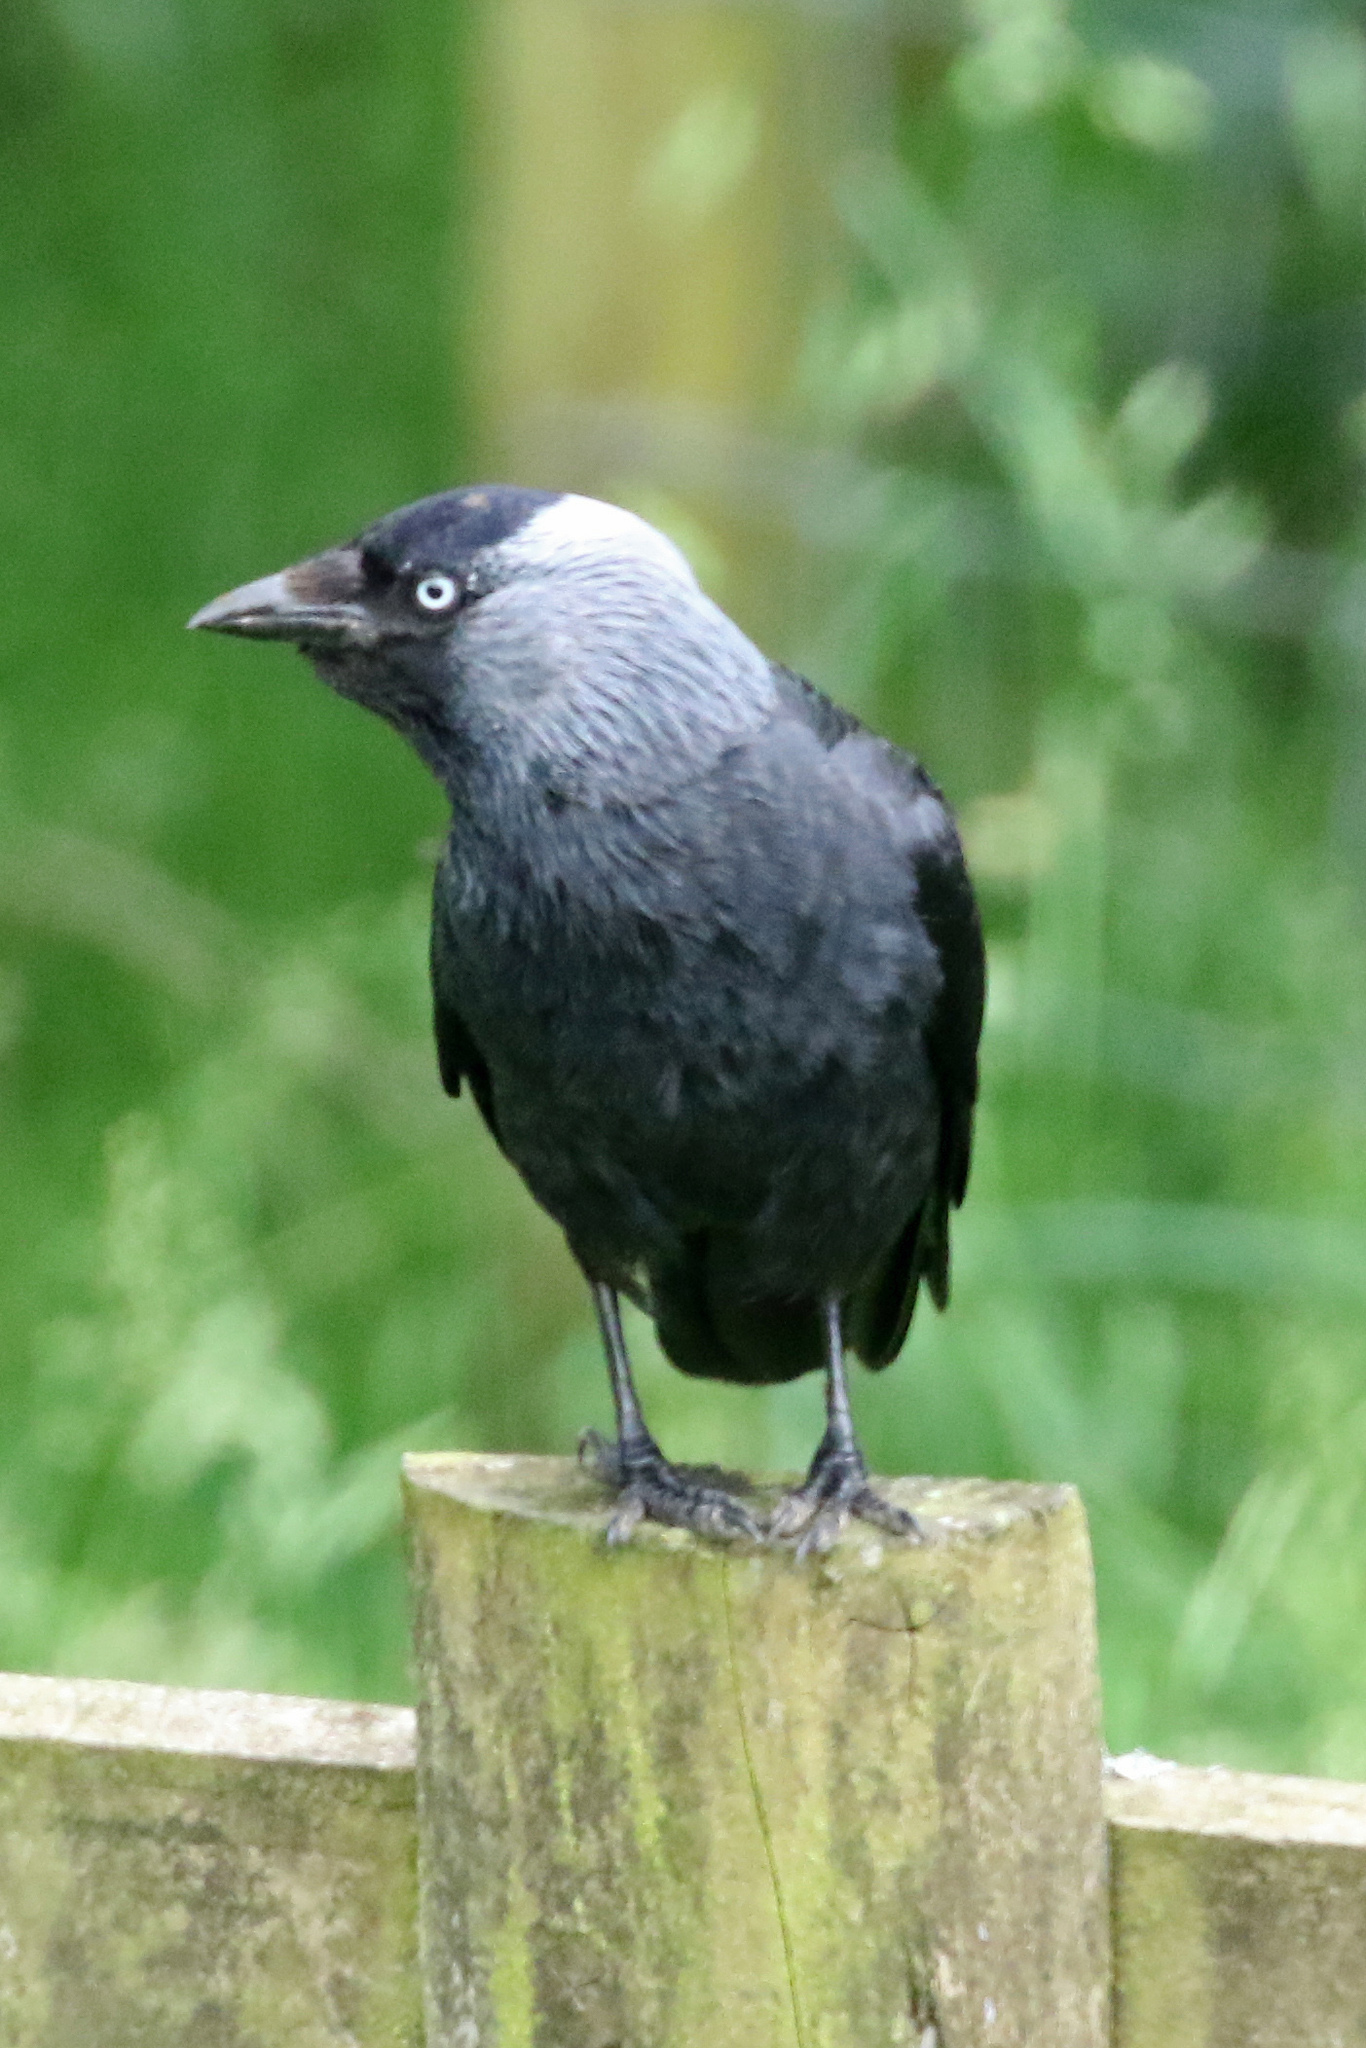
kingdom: Animalia
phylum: Chordata
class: Aves
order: Passeriformes
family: Corvidae
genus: Coloeus
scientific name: Coloeus monedula
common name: Western jackdaw
